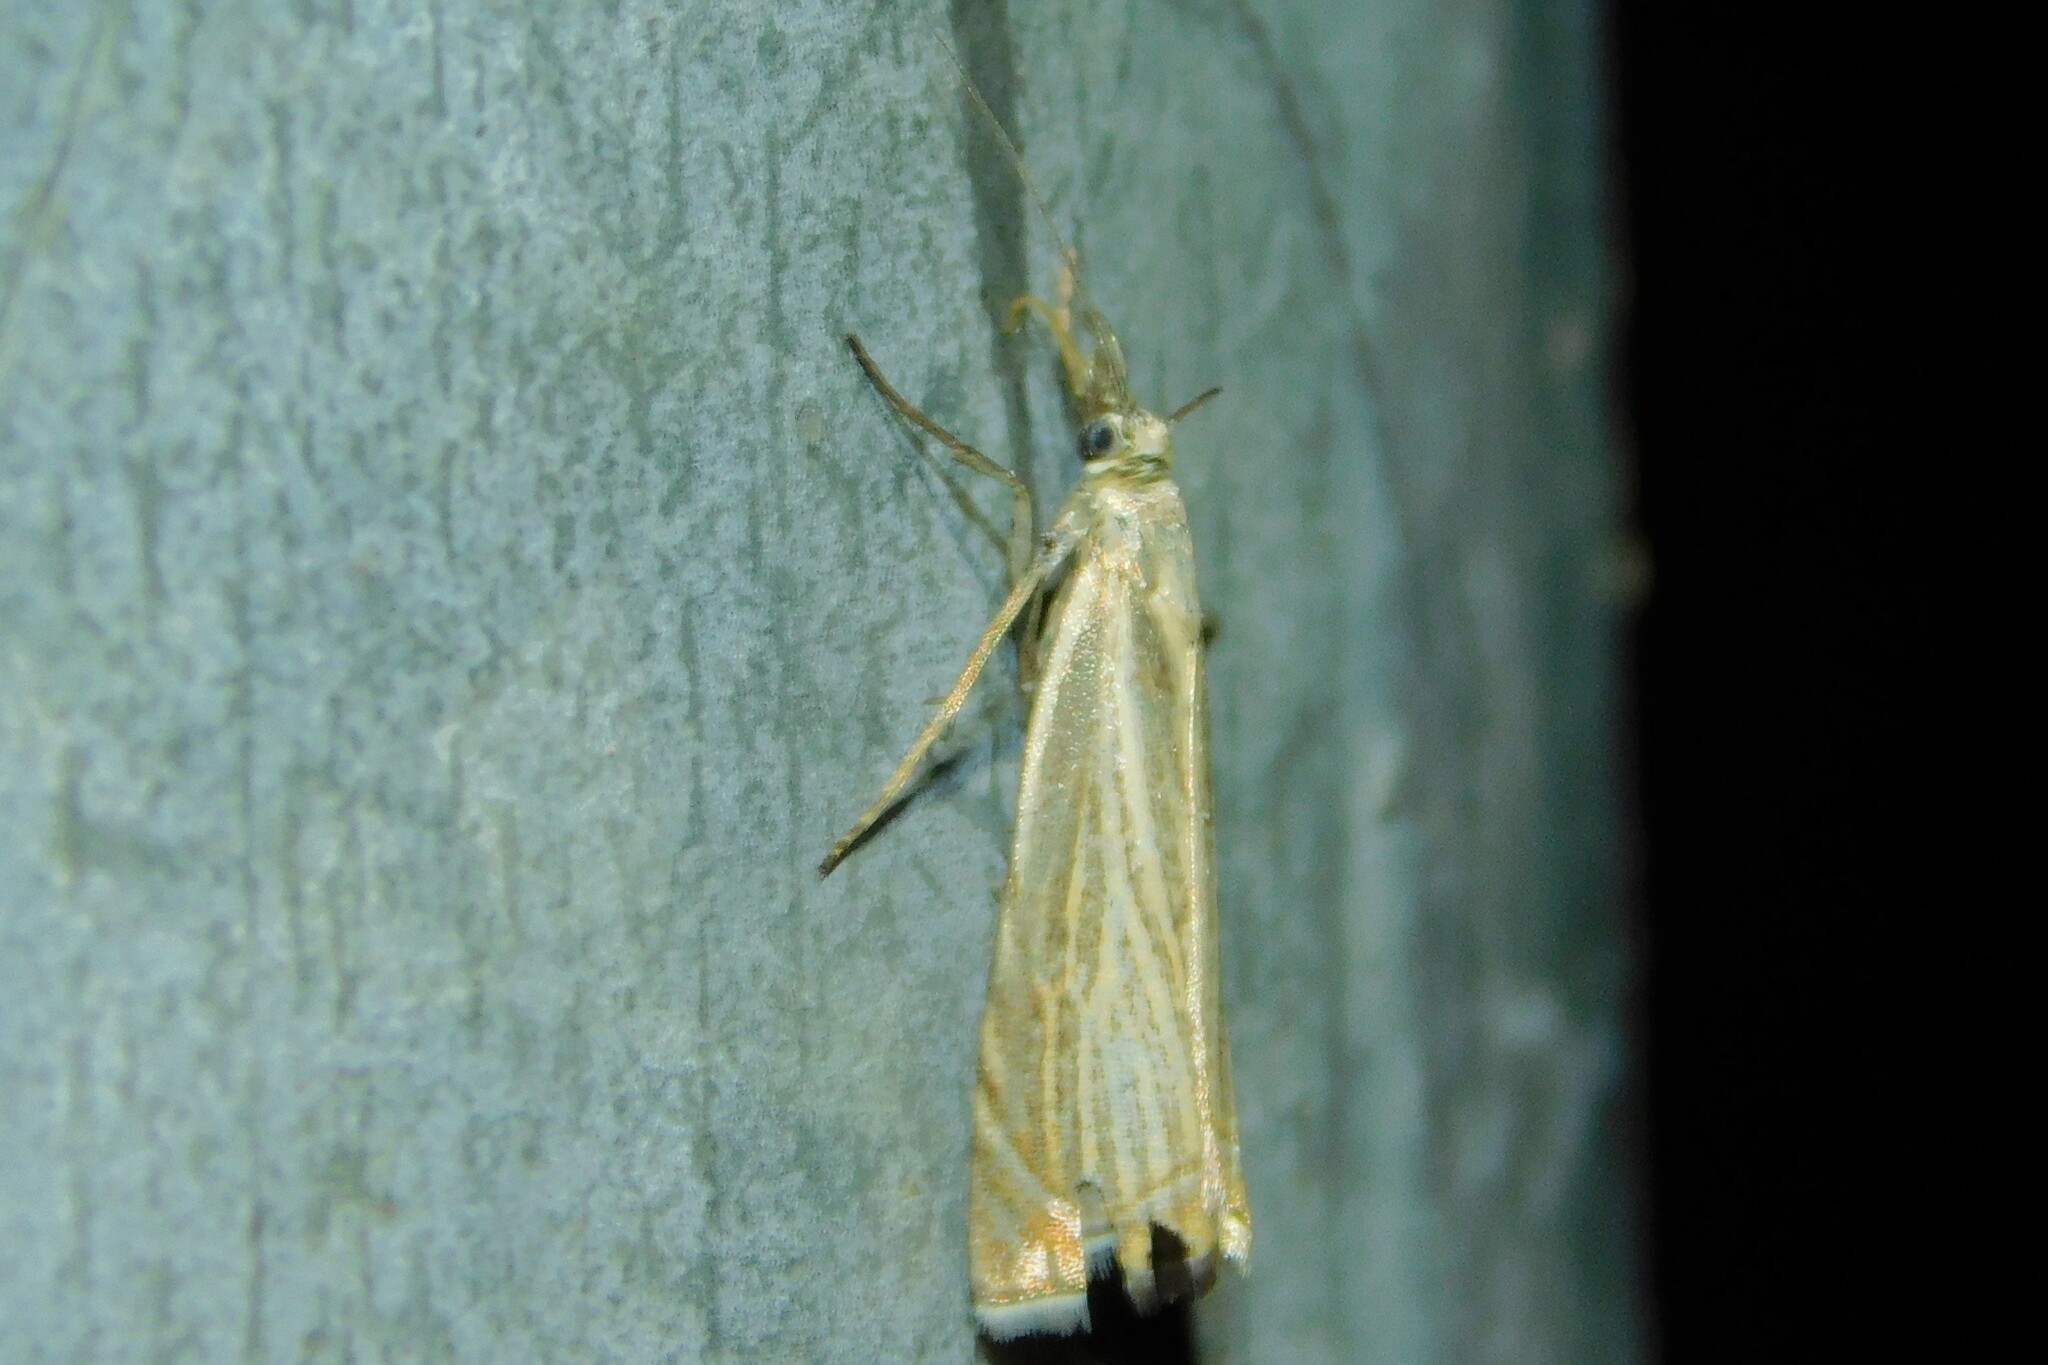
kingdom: Animalia
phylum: Arthropoda
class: Insecta
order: Lepidoptera
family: Crambidae
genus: Chrysoteuchia
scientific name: Chrysoteuchia culmella
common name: Garden grass-veneer
